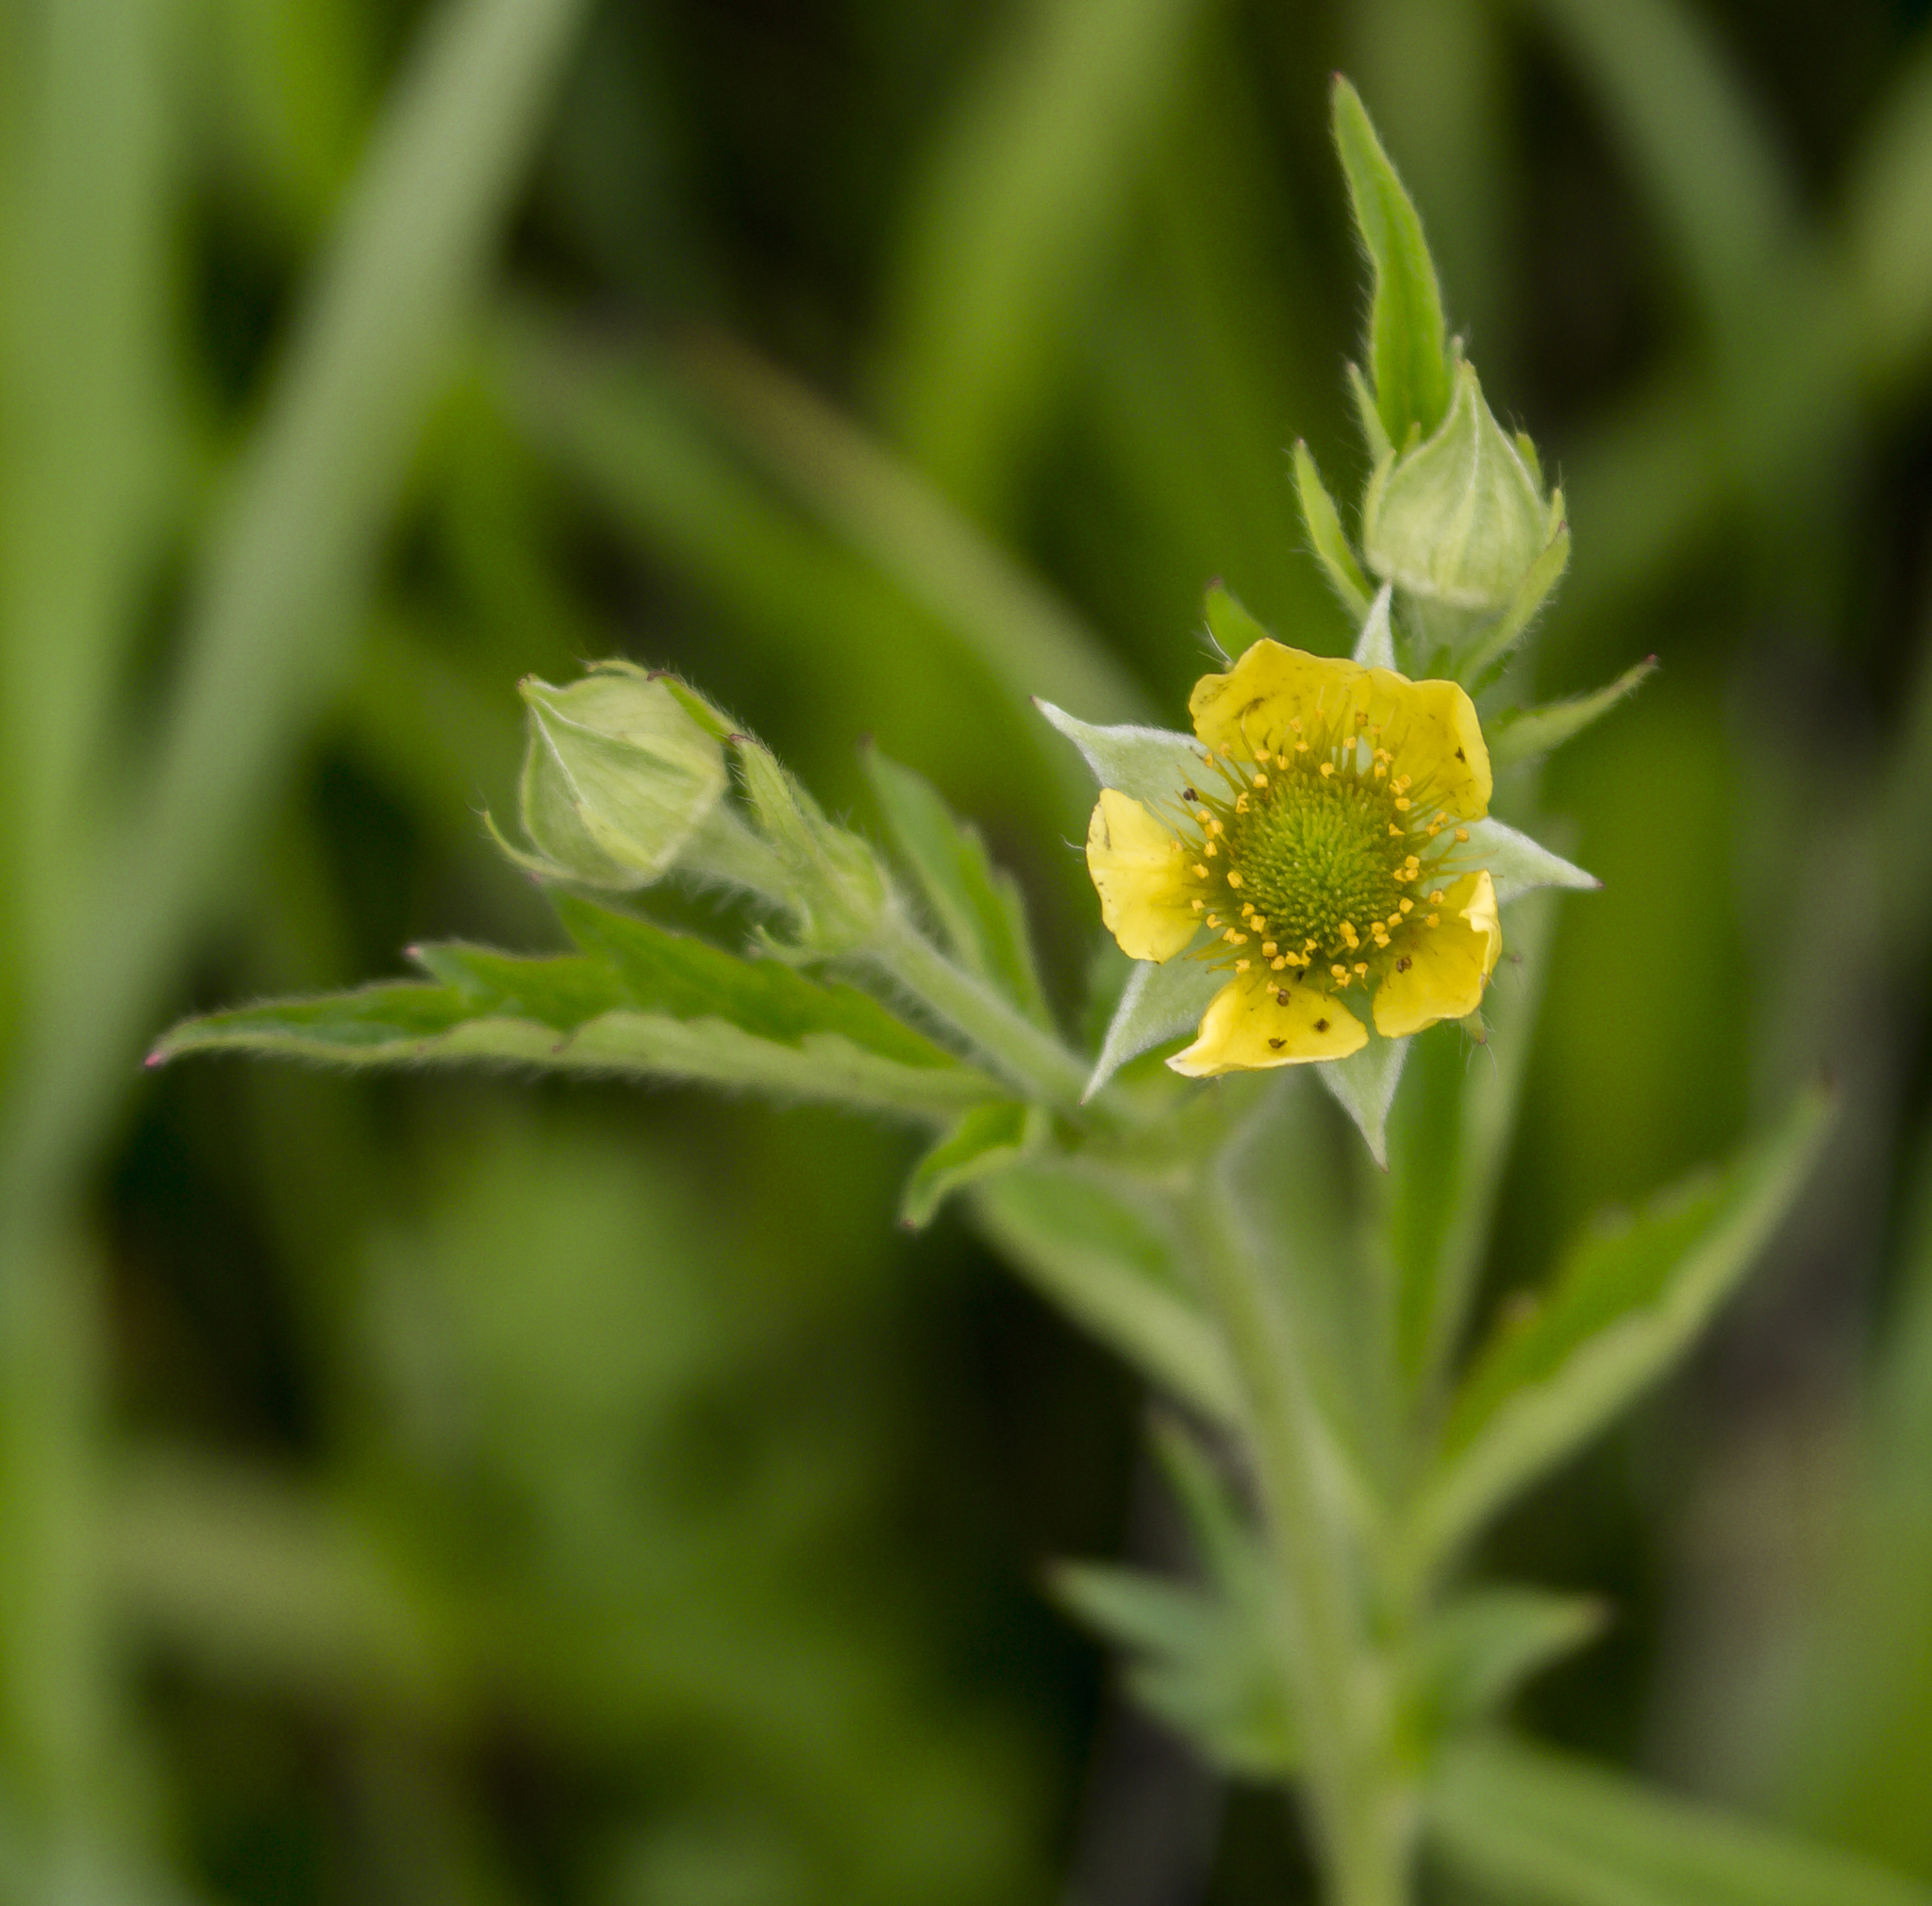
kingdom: Plantae
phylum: Tracheophyta
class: Magnoliopsida
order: Rosales
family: Rosaceae
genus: Geum
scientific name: Geum aleppicum
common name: Yellow avens
